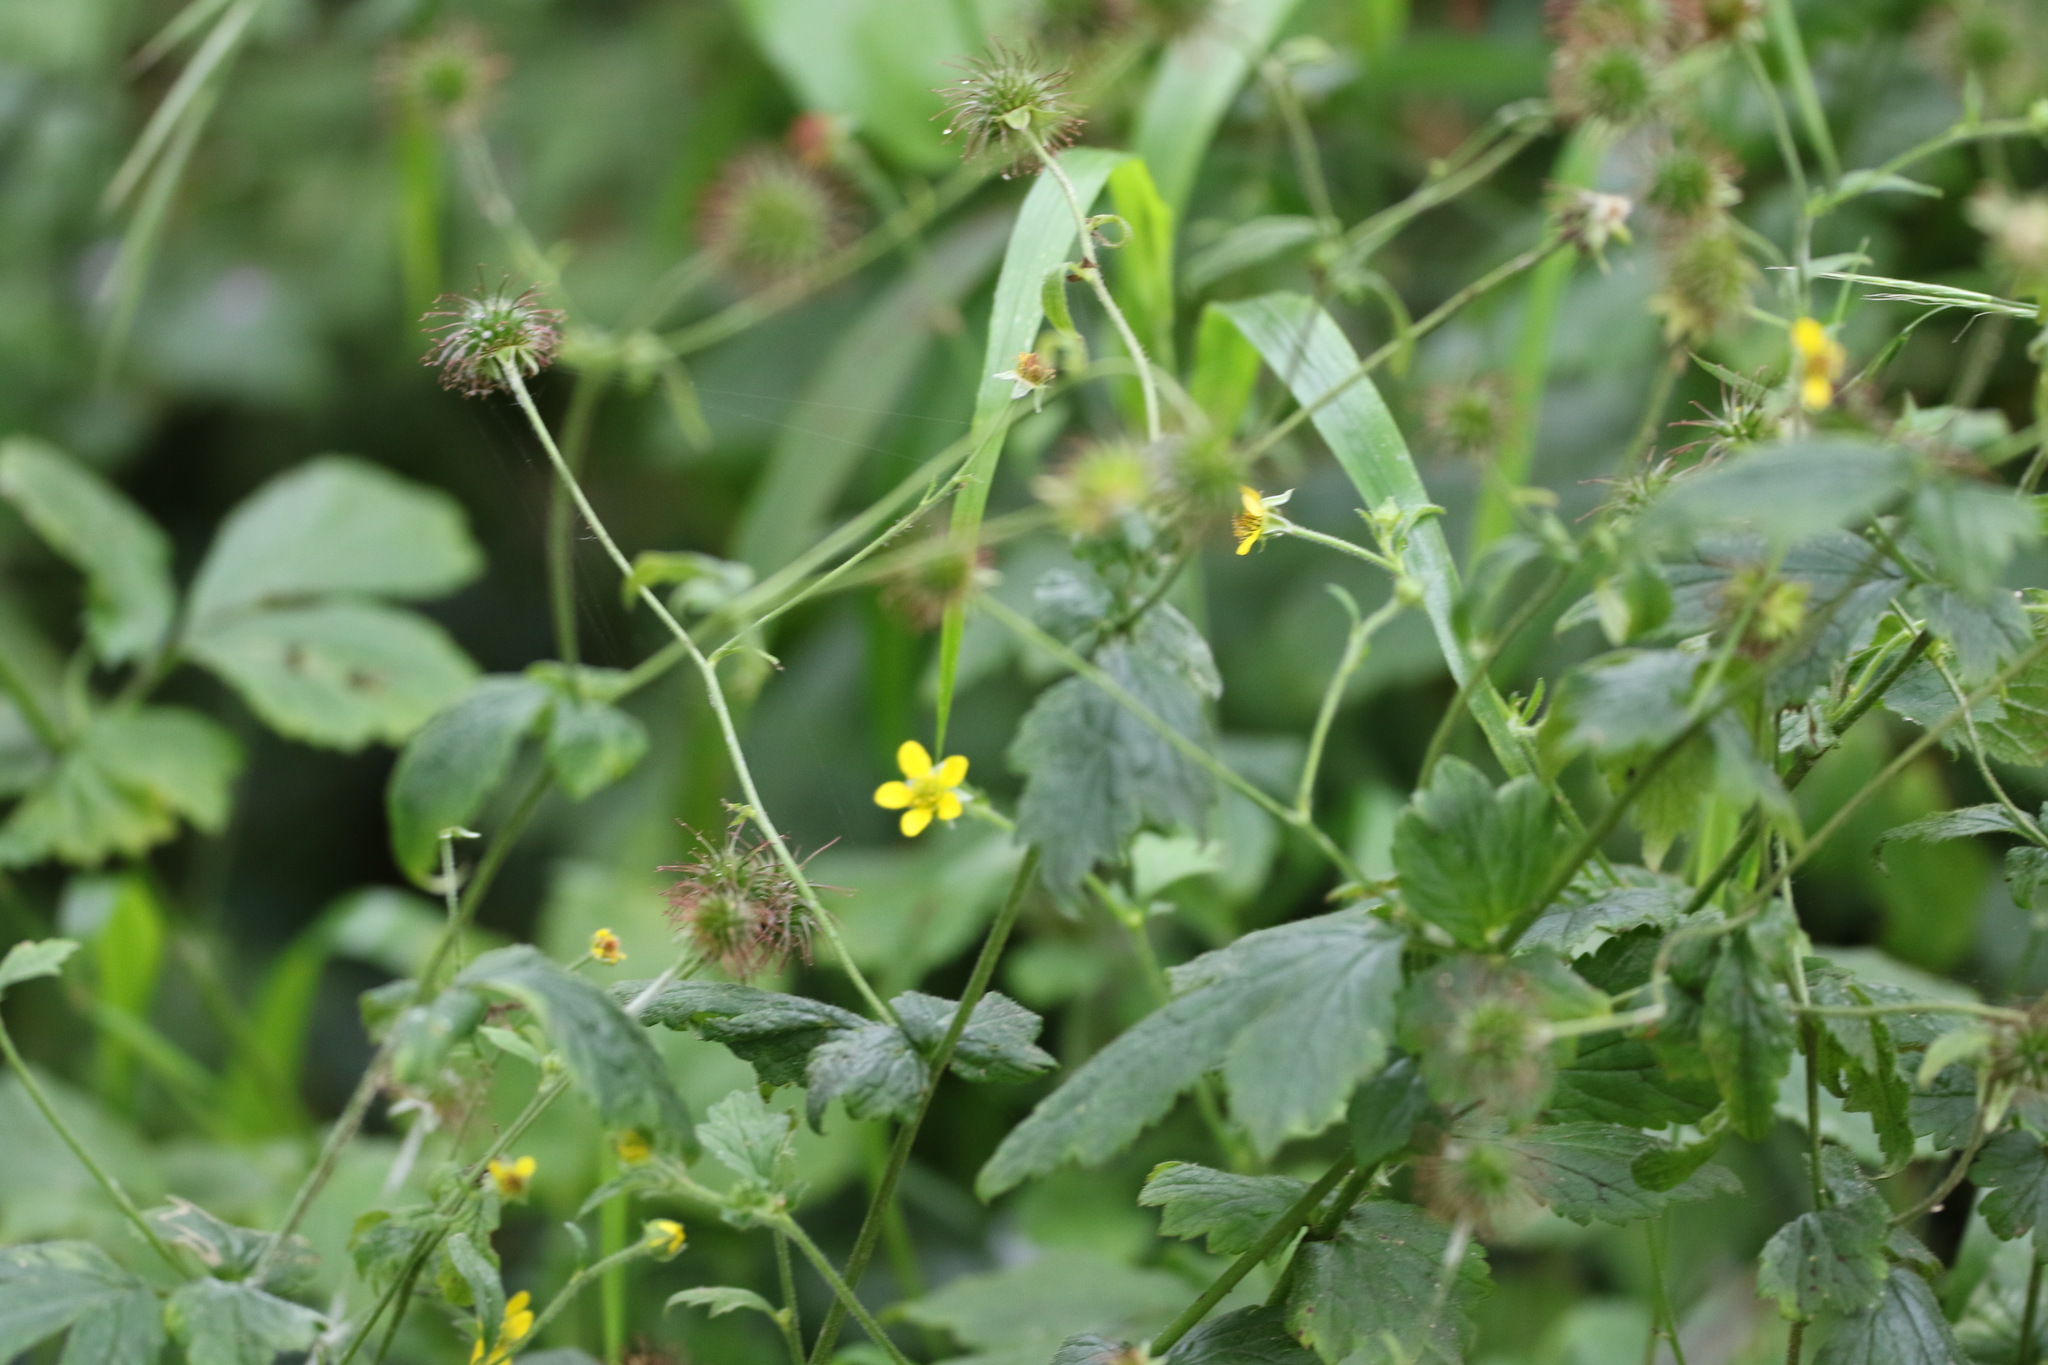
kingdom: Plantae
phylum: Tracheophyta
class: Magnoliopsida
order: Rosales
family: Rosaceae
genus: Geum
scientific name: Geum urbanum
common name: Wood avens
